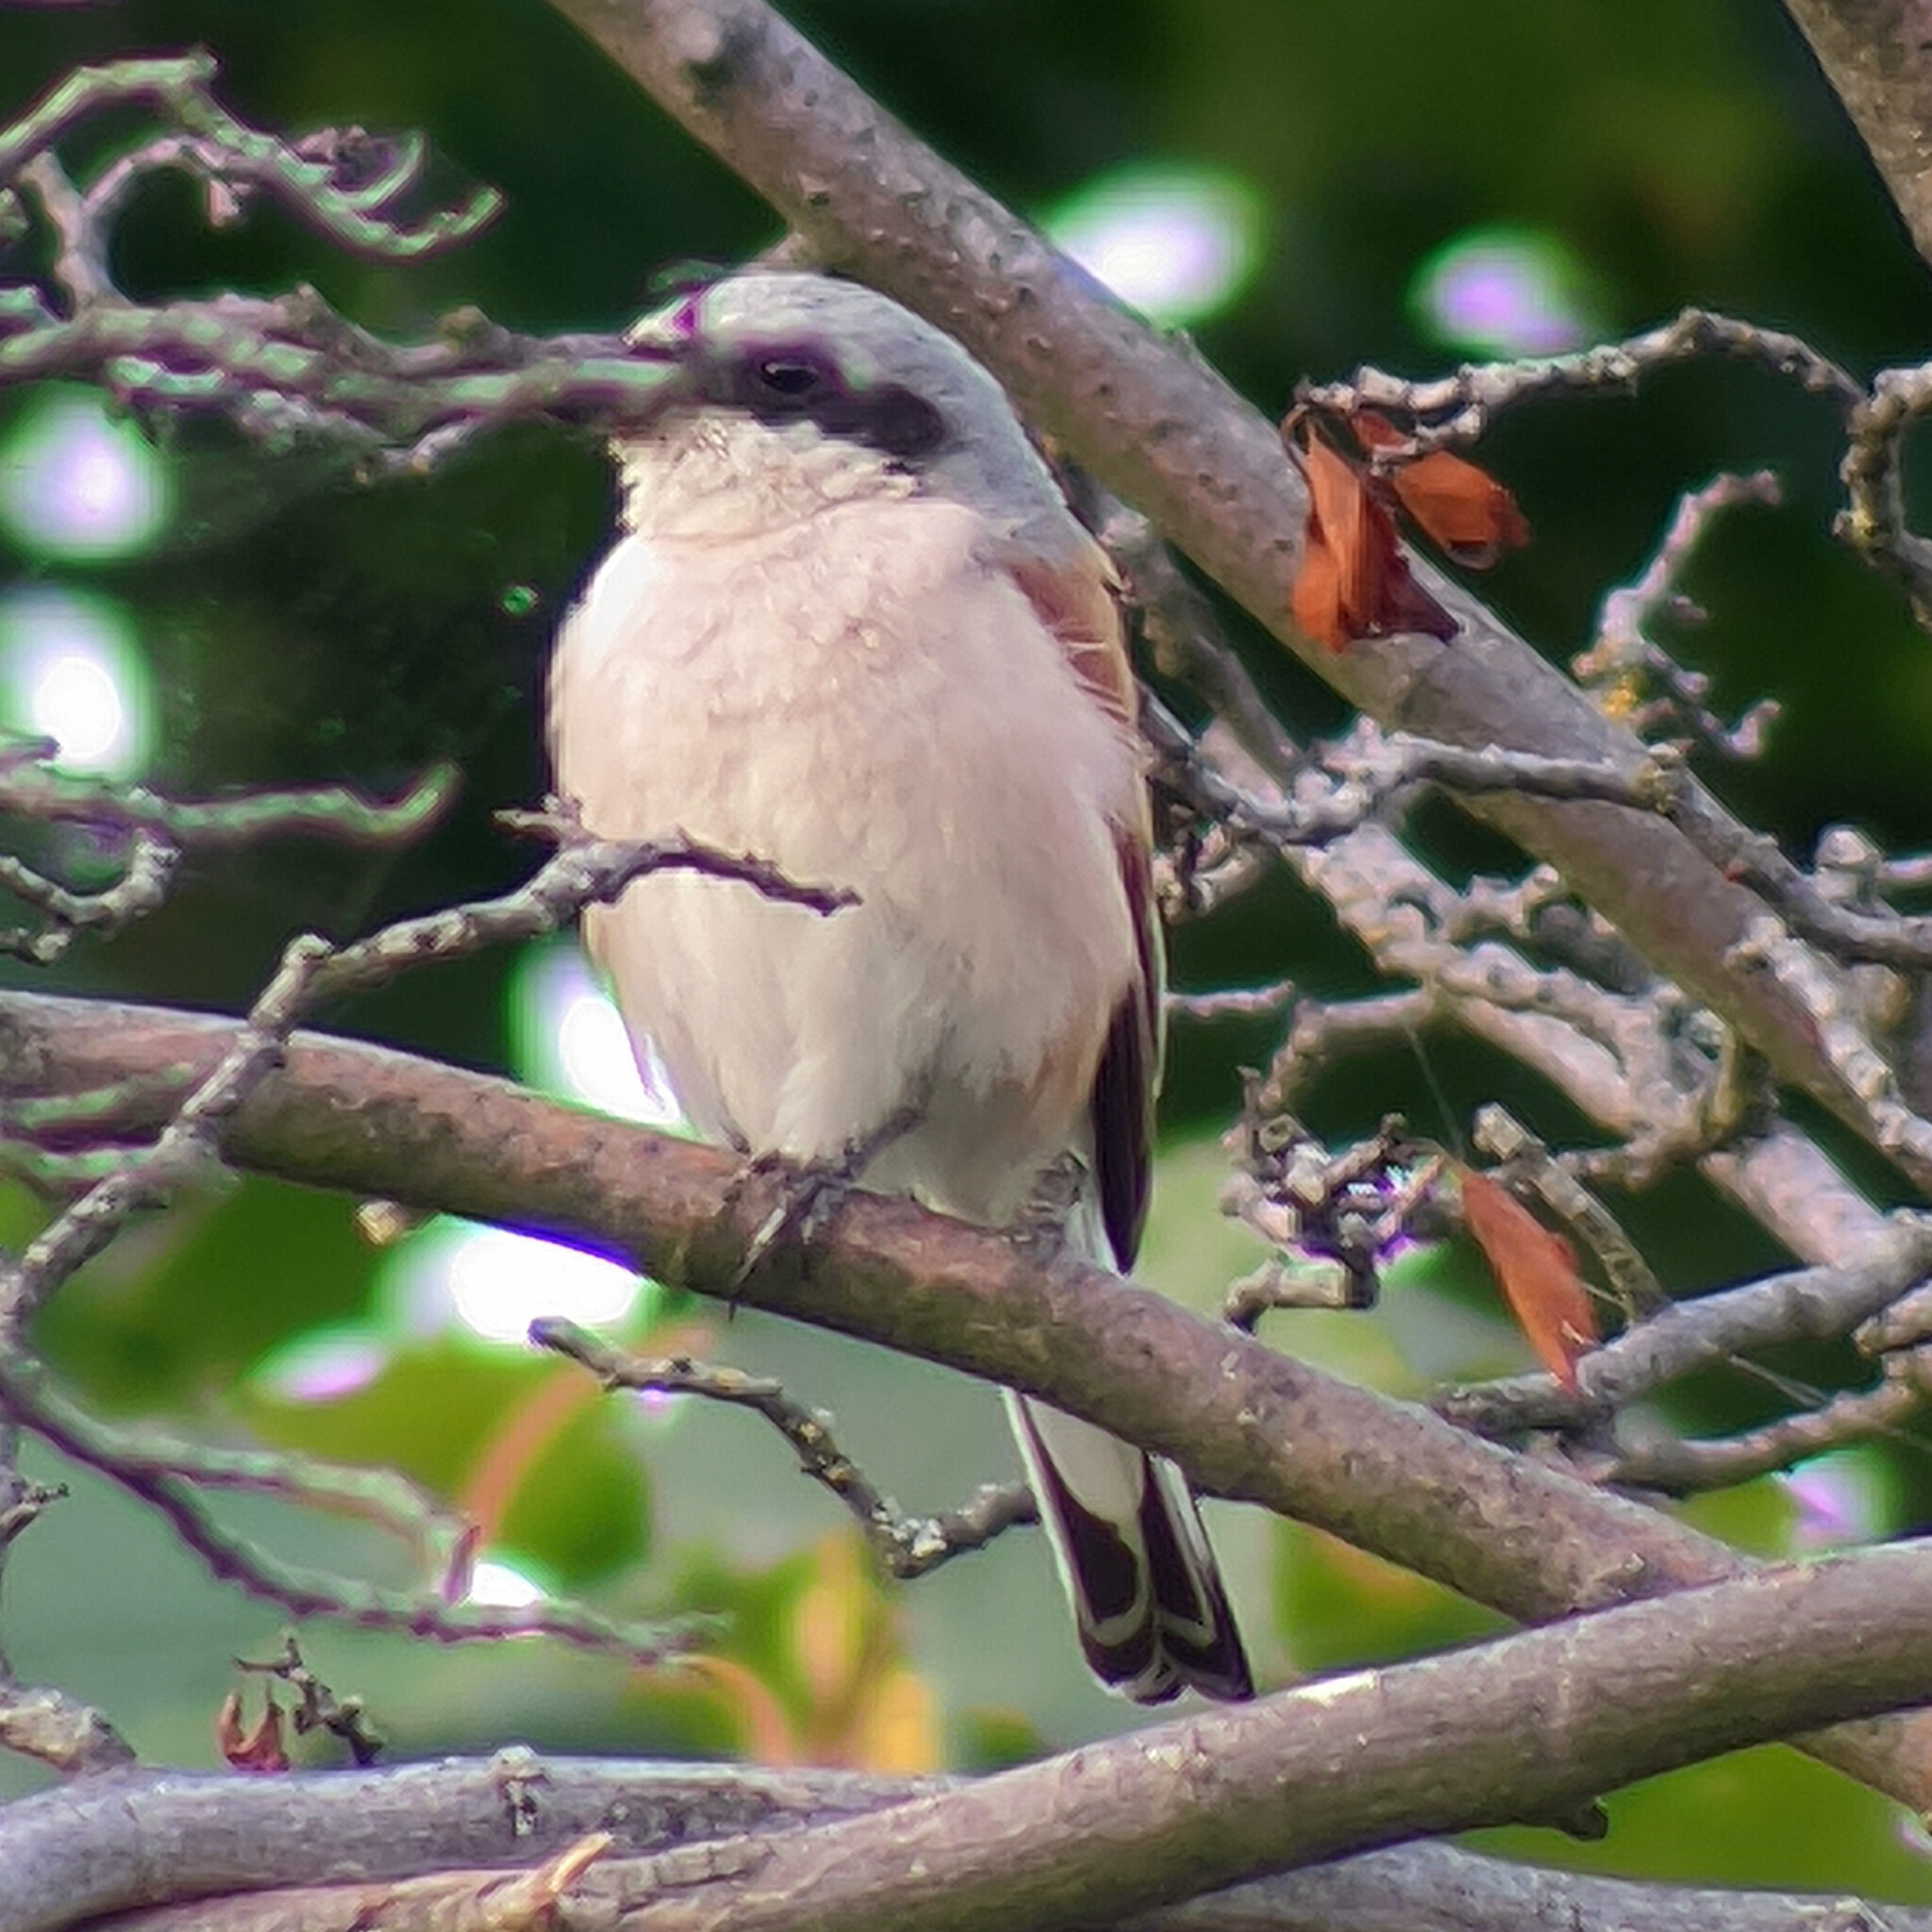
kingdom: Animalia
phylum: Chordata
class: Aves
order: Passeriformes
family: Laniidae
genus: Lanius
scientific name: Lanius collurio
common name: Red-backed shrike
